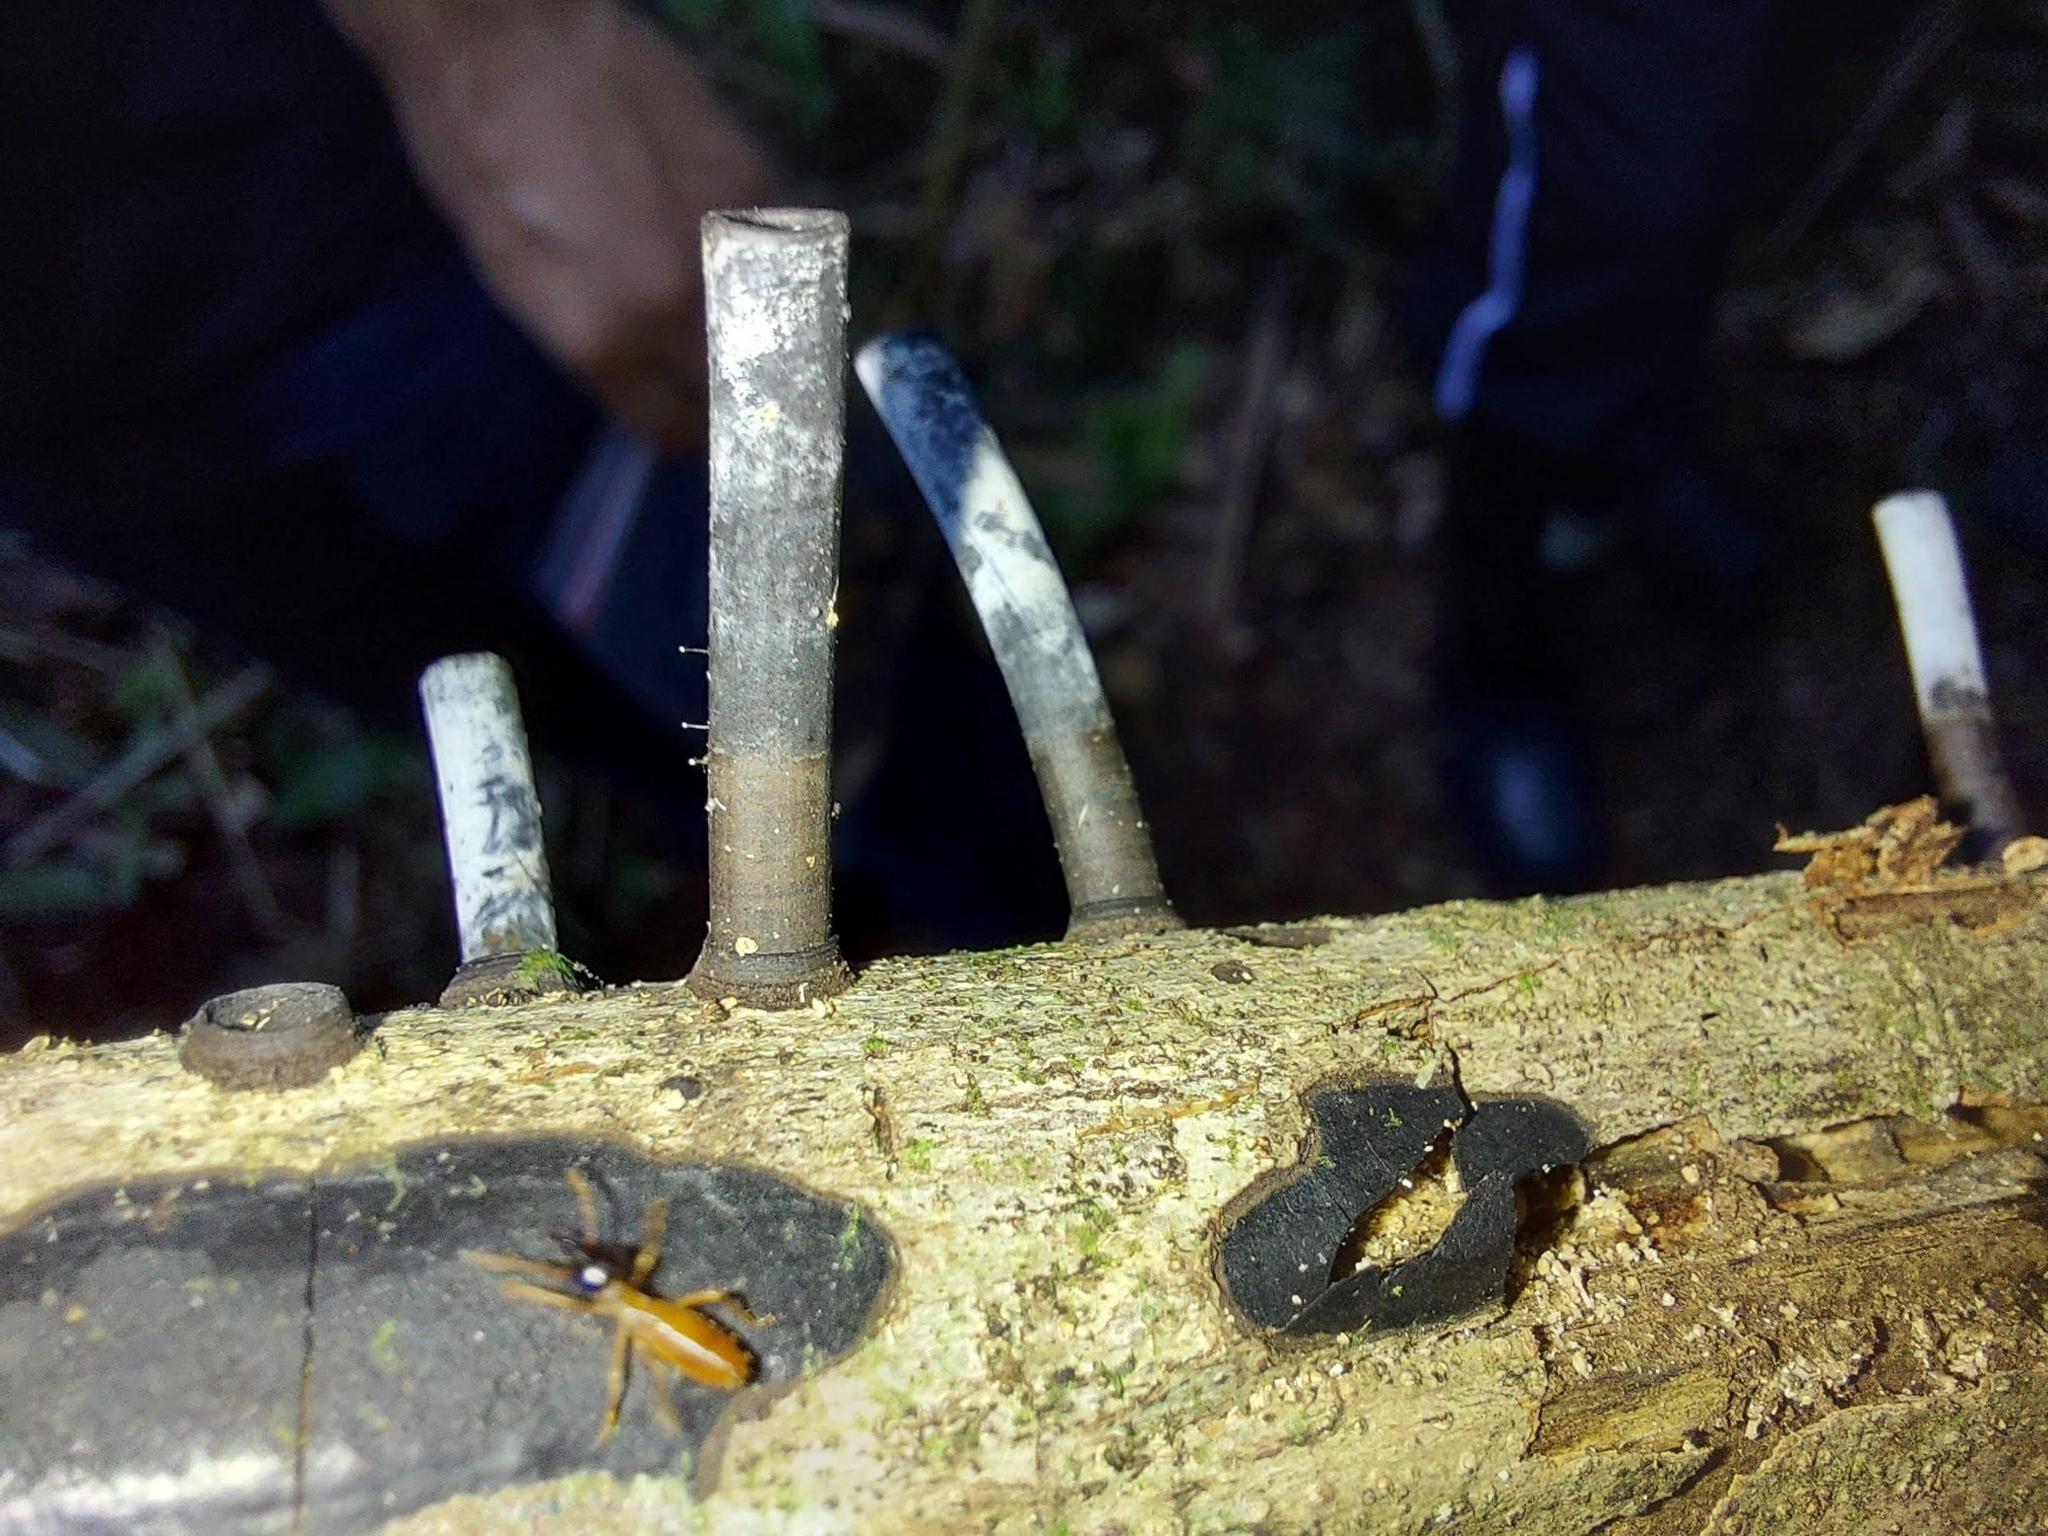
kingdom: Fungi
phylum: Ascomycota
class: Sordariomycetes
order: Xylariales
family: Graphostromataceae
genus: Camillea
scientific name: Camillea leprieurii
